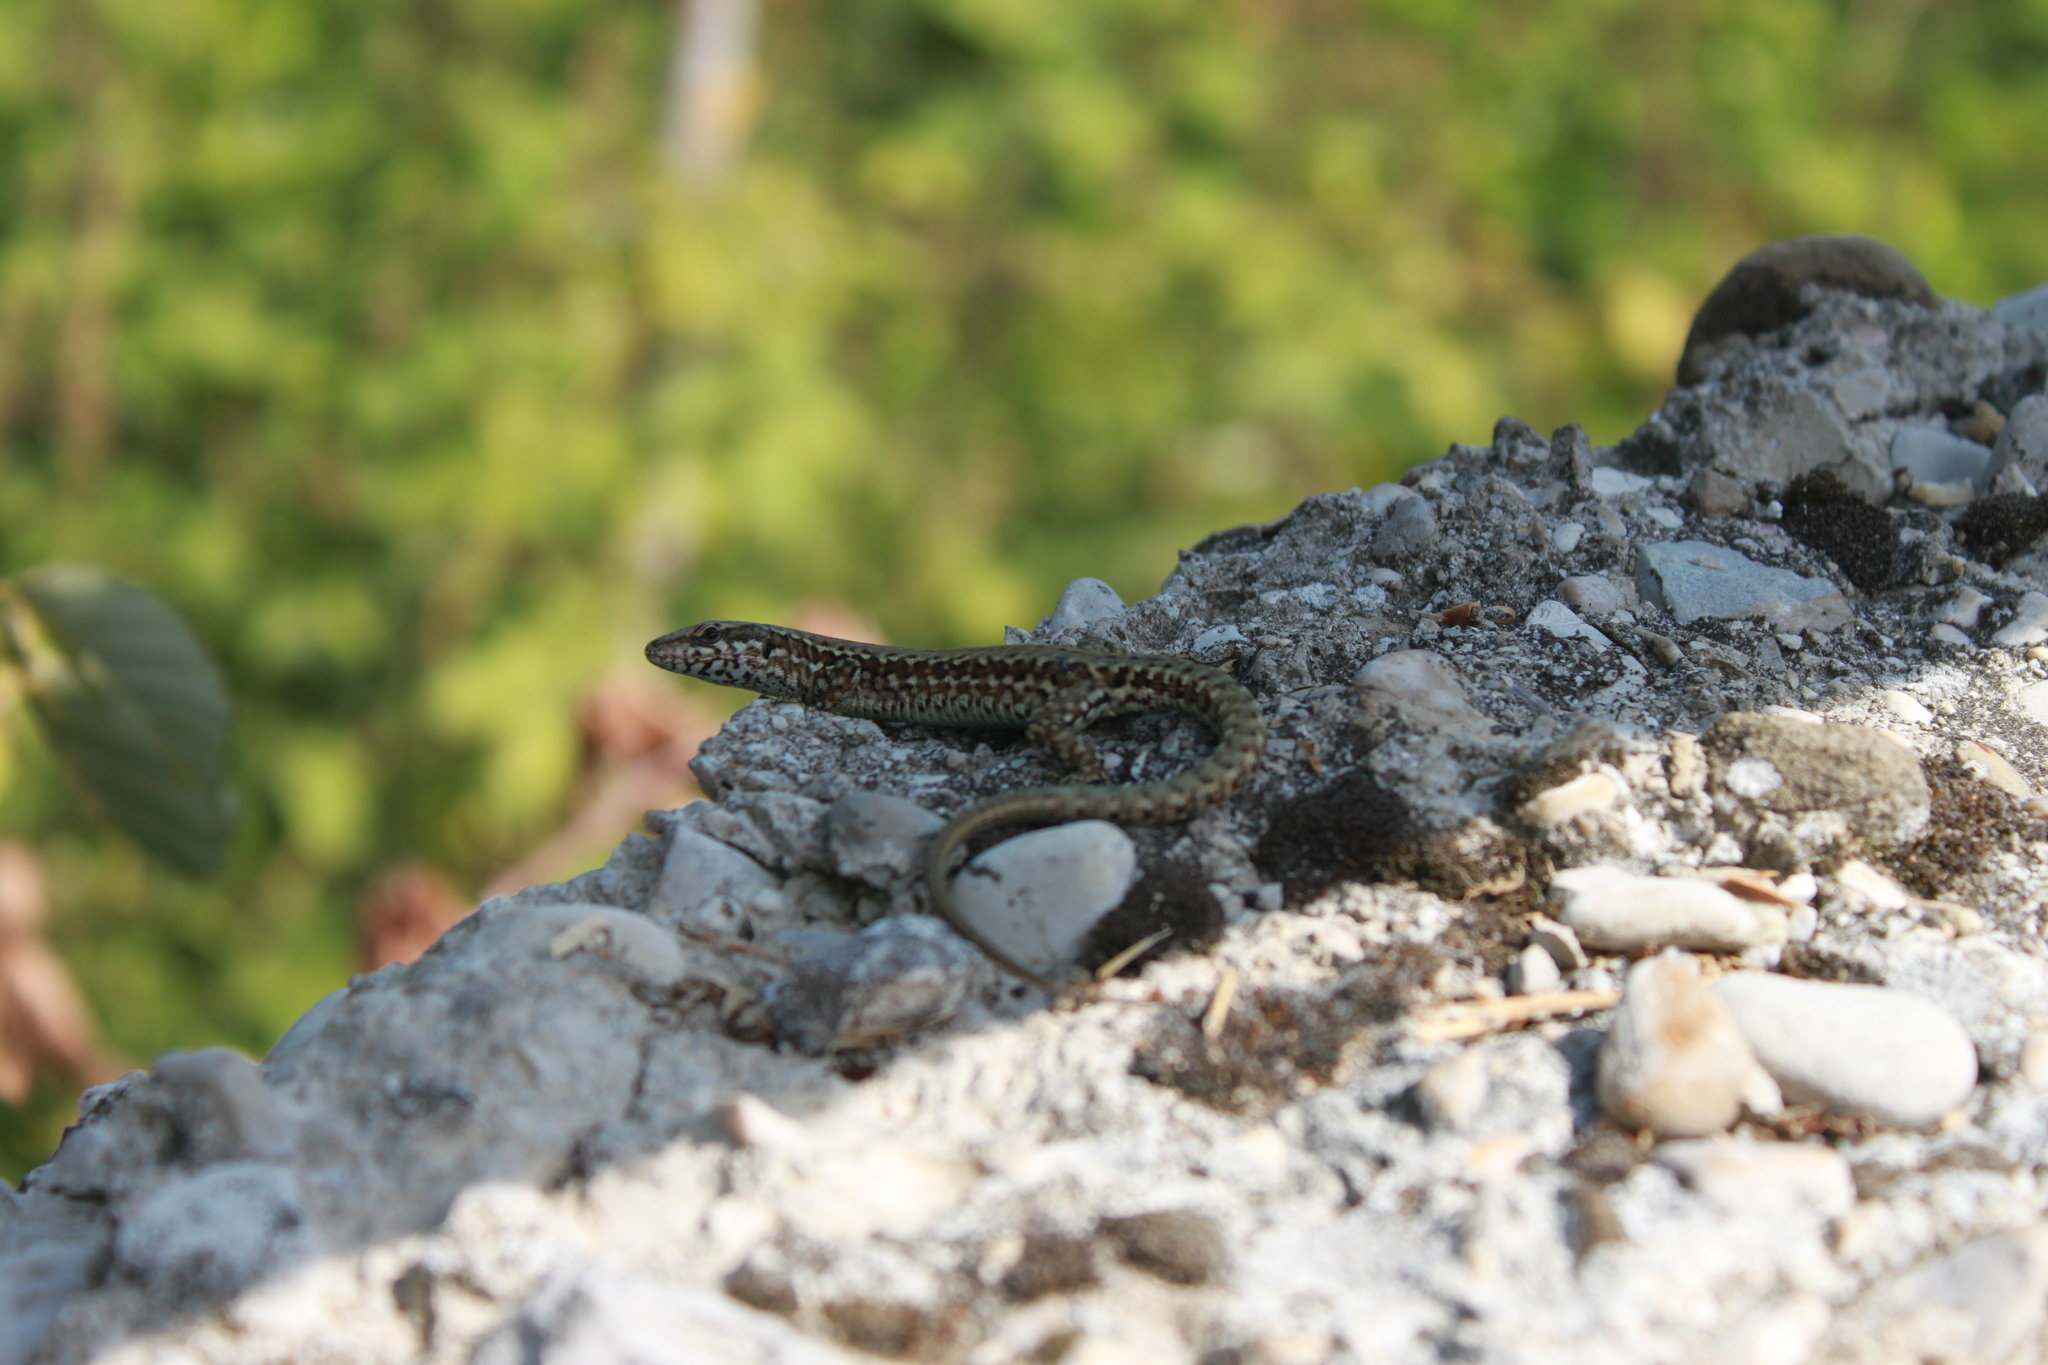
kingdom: Animalia
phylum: Chordata
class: Squamata
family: Lacertidae
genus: Podarcis
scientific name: Podarcis muralis
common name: Common wall lizard
